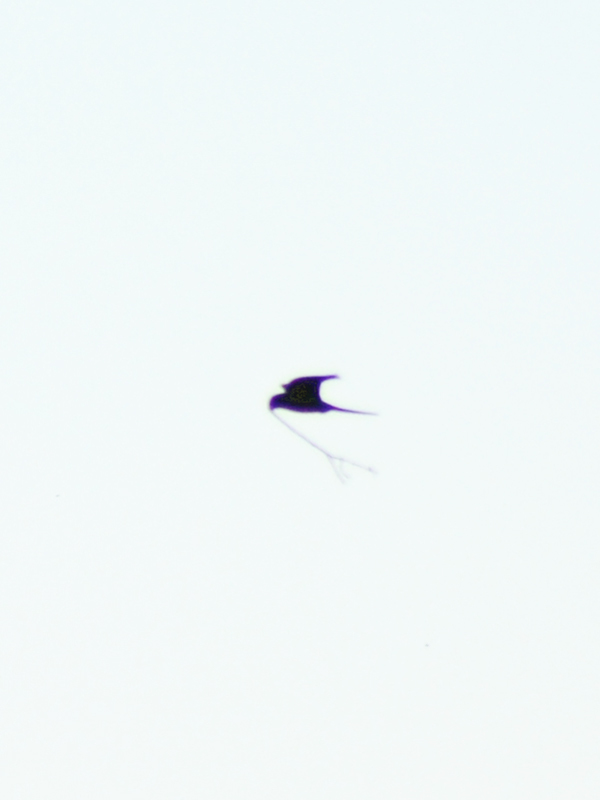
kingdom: Animalia
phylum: Chordata
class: Aves
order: Psittaciformes
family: Psittacidae
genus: Myiopsitta
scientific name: Myiopsitta monachus
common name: Monk parakeet
